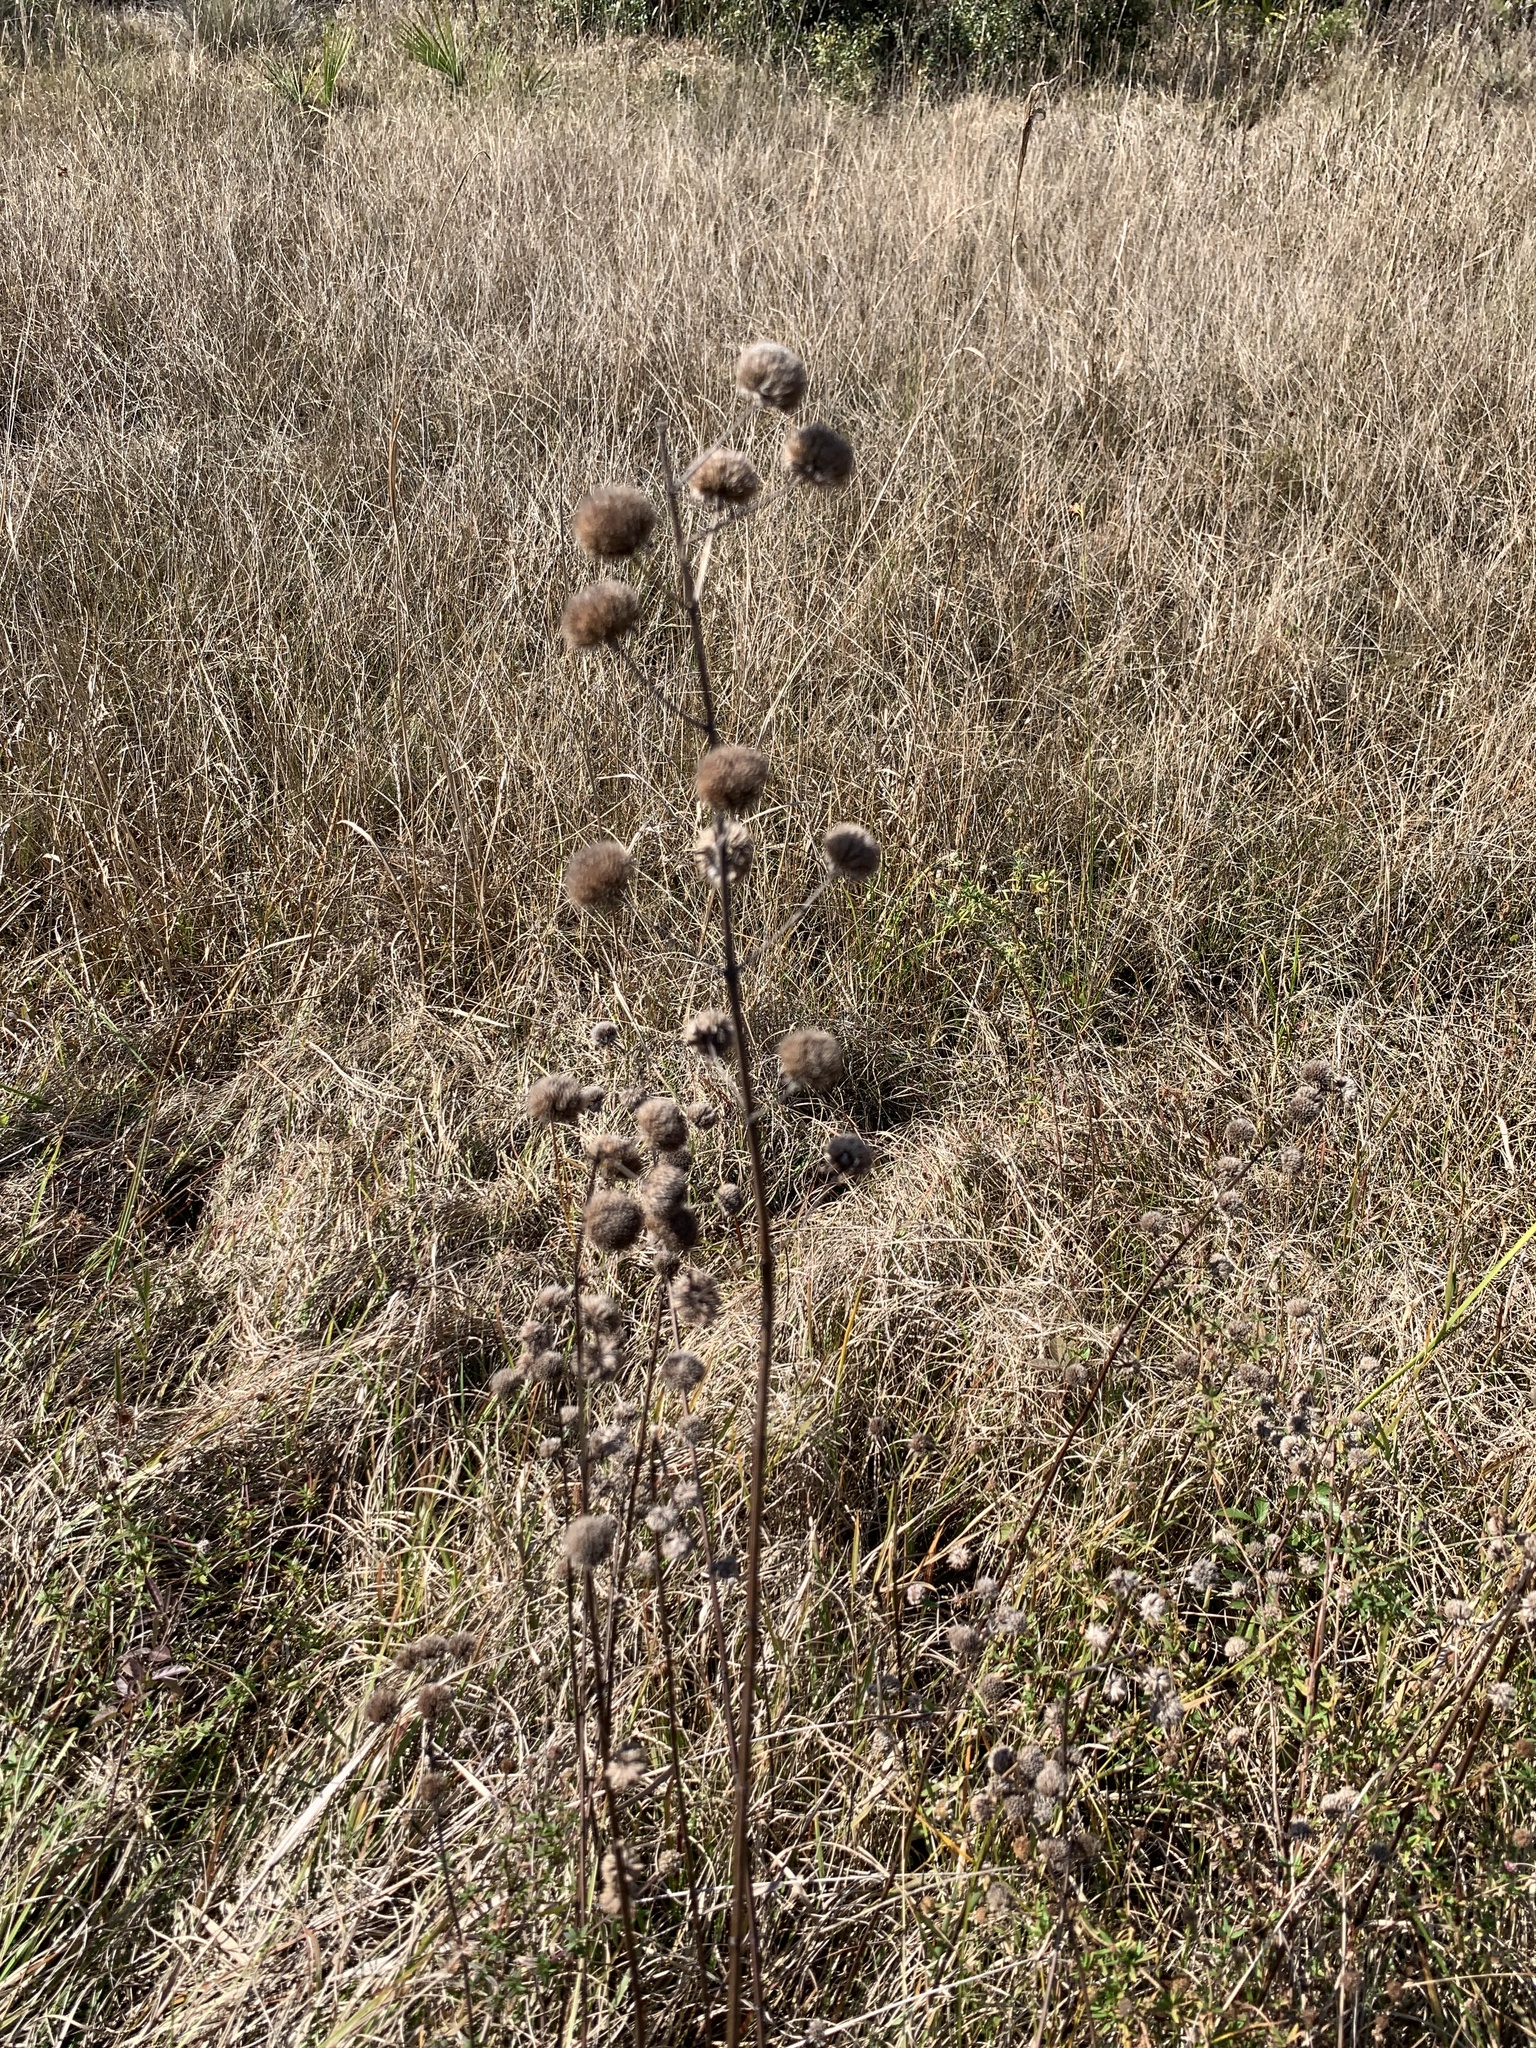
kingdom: Plantae
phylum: Tracheophyta
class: Magnoliopsida
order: Lamiales
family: Lamiaceae
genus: Hyptis
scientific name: Hyptis alata
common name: Cluster bush-mint
